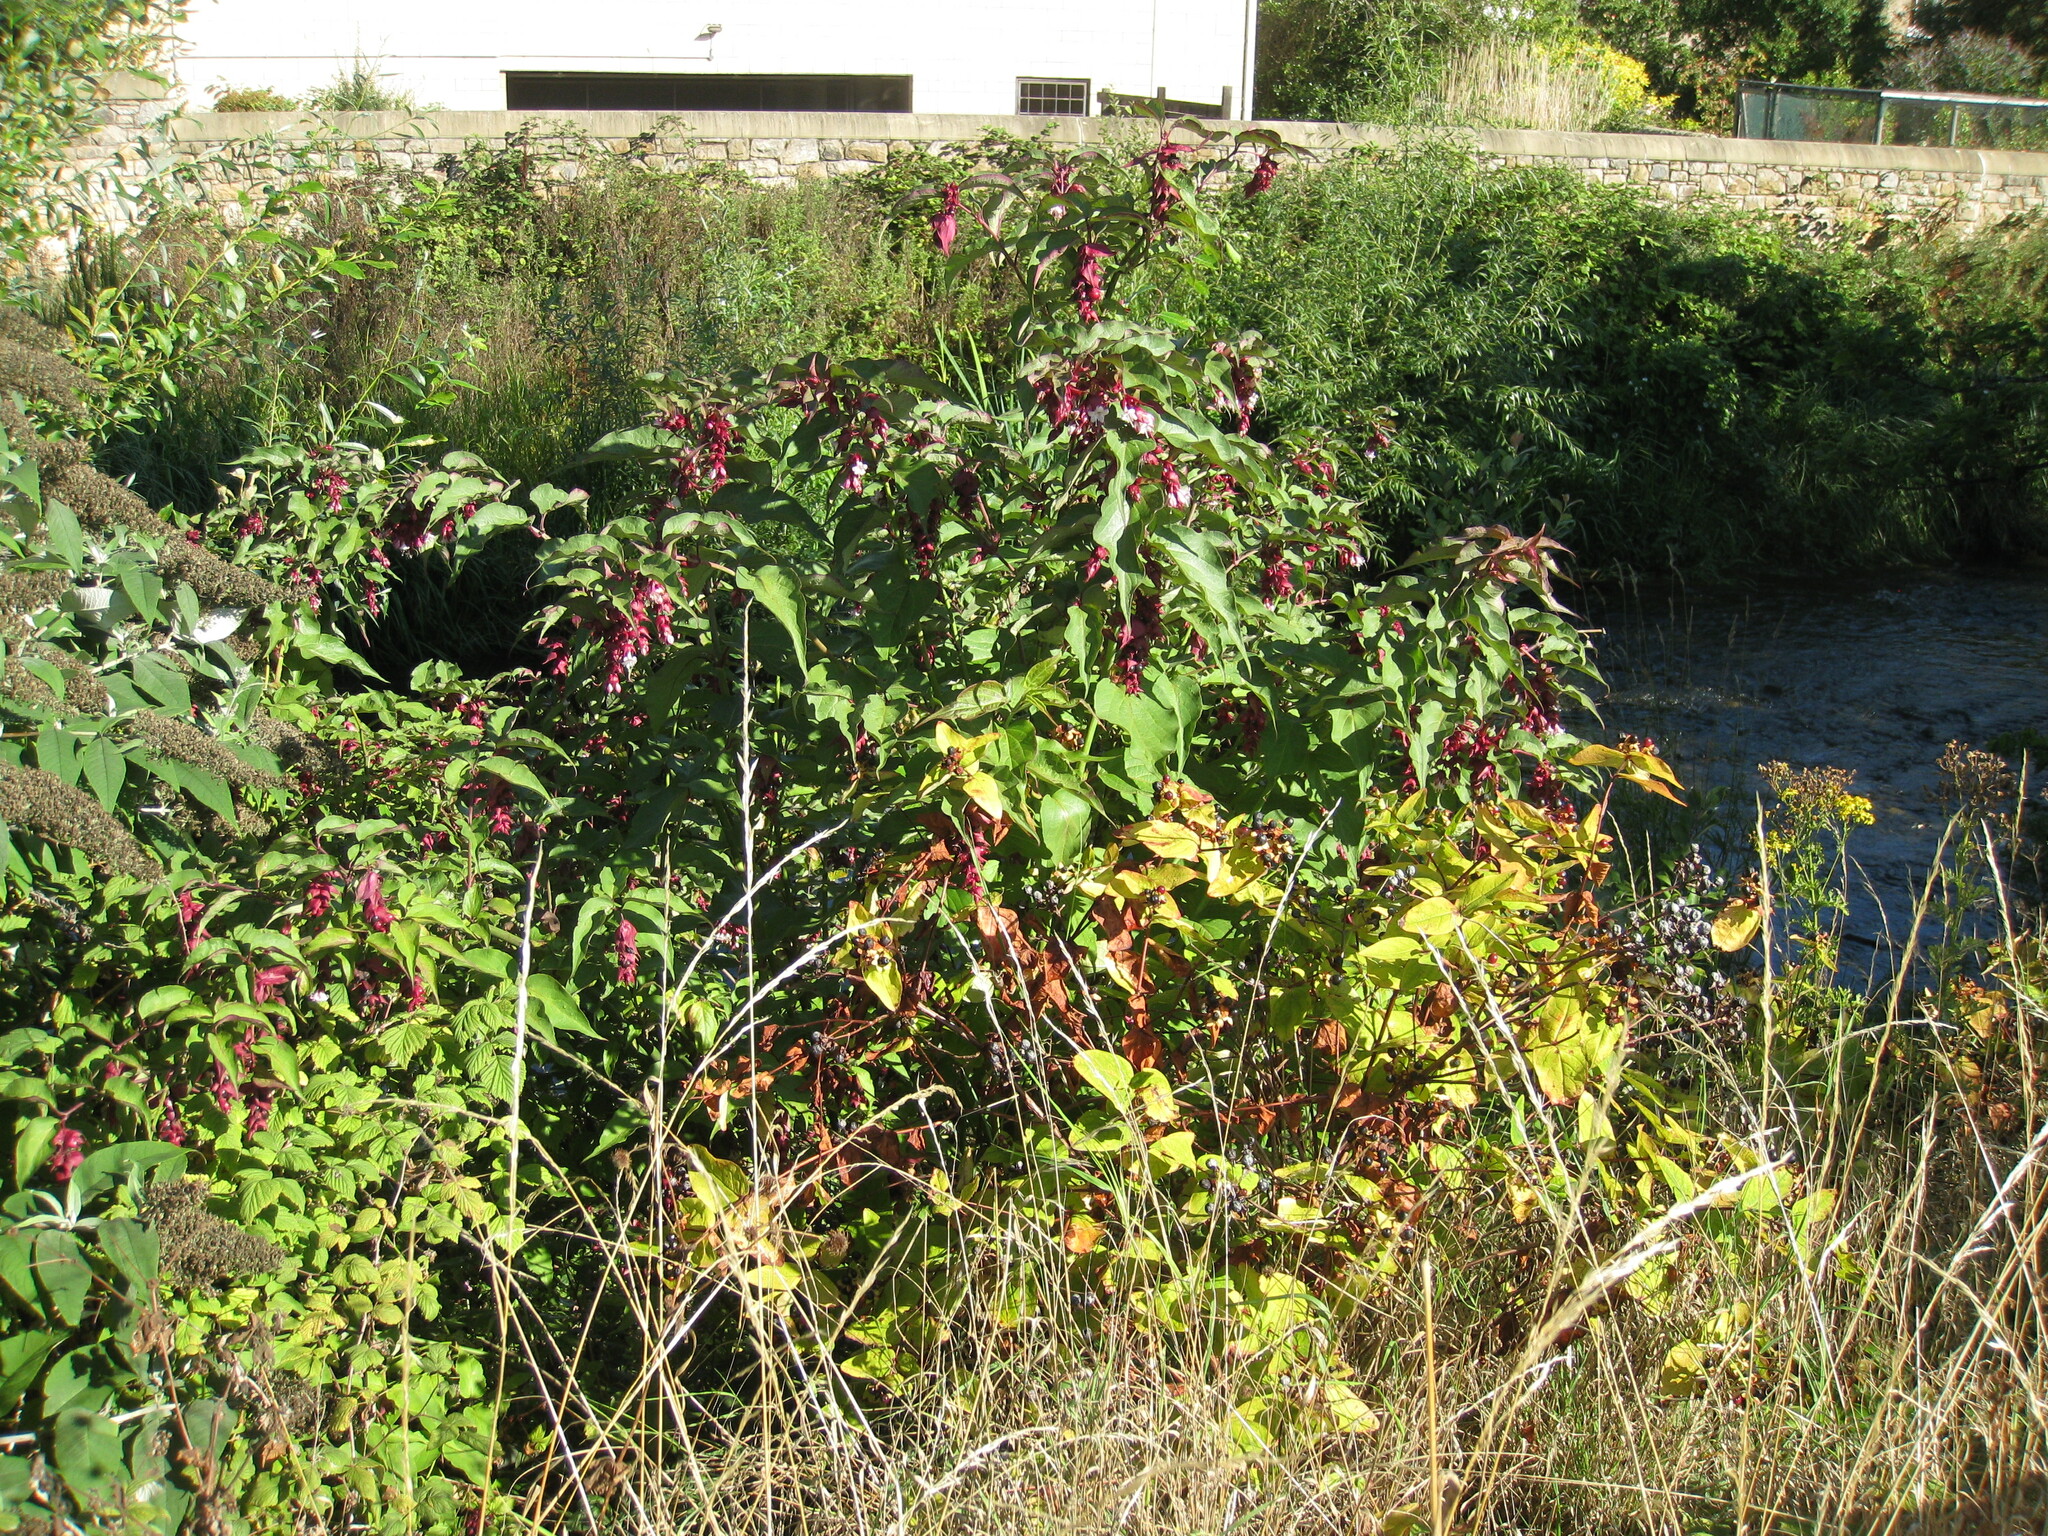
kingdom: Plantae
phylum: Tracheophyta
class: Magnoliopsida
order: Dipsacales
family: Caprifoliaceae
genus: Leycesteria
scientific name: Leycesteria formosa
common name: Himalayan honeysuckle
